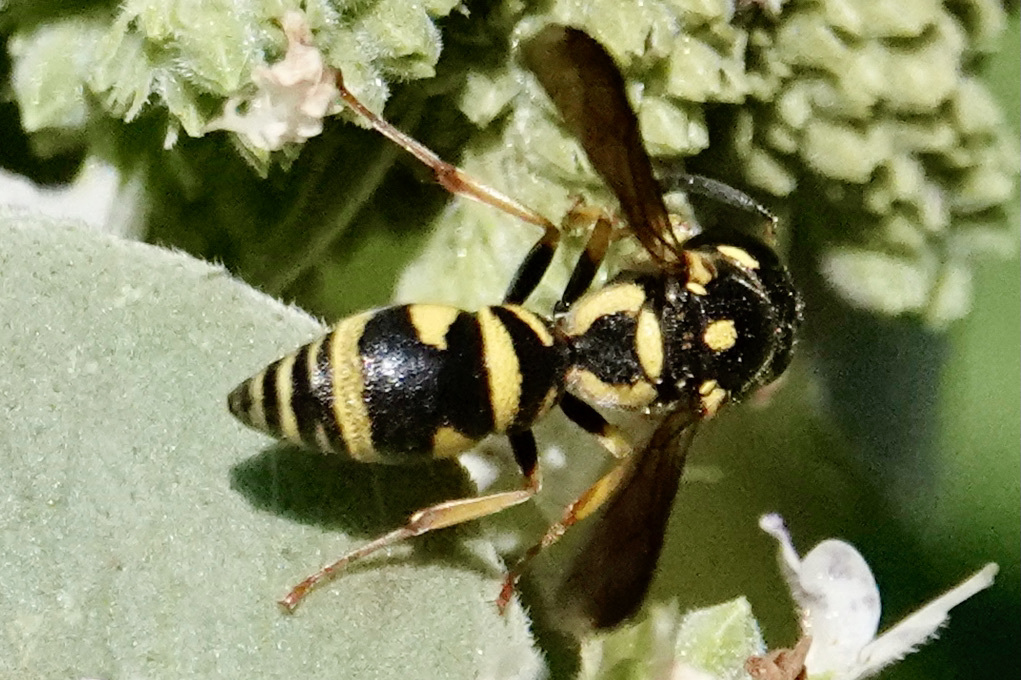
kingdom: Animalia
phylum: Arthropoda
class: Insecta
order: Hymenoptera
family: Eumenidae
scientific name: Eumenidae
